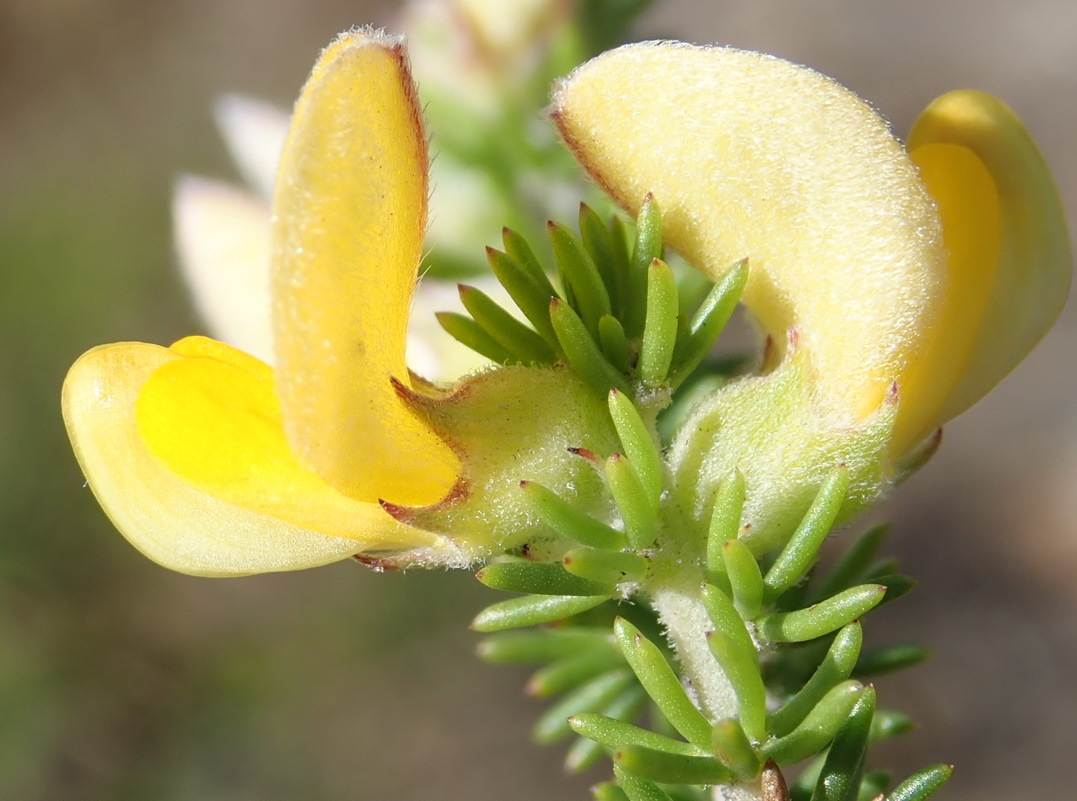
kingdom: Plantae
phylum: Tracheophyta
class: Magnoliopsida
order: Fabales
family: Fabaceae
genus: Aspalathus
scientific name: Aspalathus laricifolia
